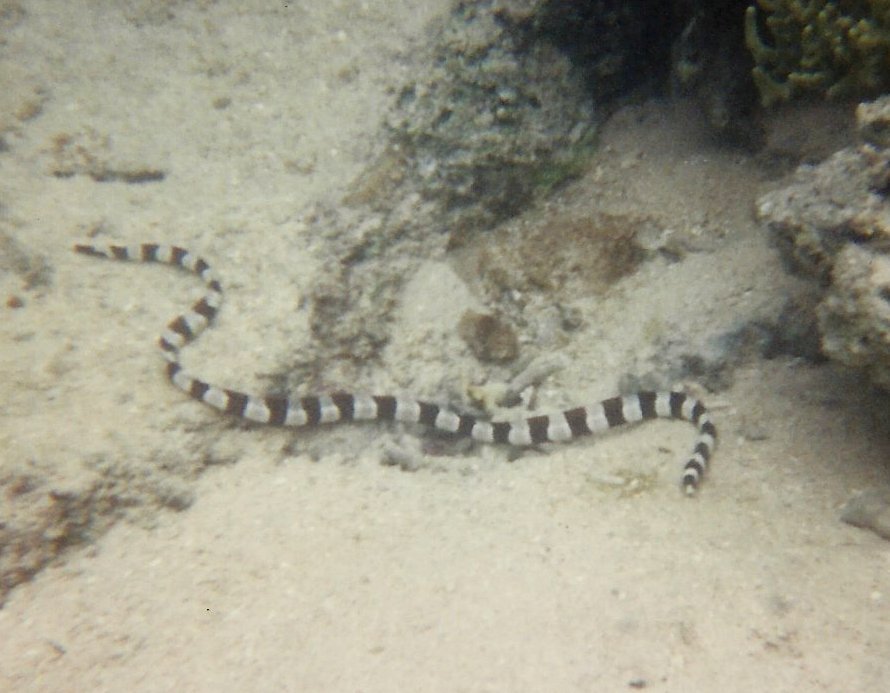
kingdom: Animalia
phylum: Chordata
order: Anguilliformes
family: Ophichthidae
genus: Myrichthys
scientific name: Myrichthys colubrinus
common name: Harlequin snake eel
